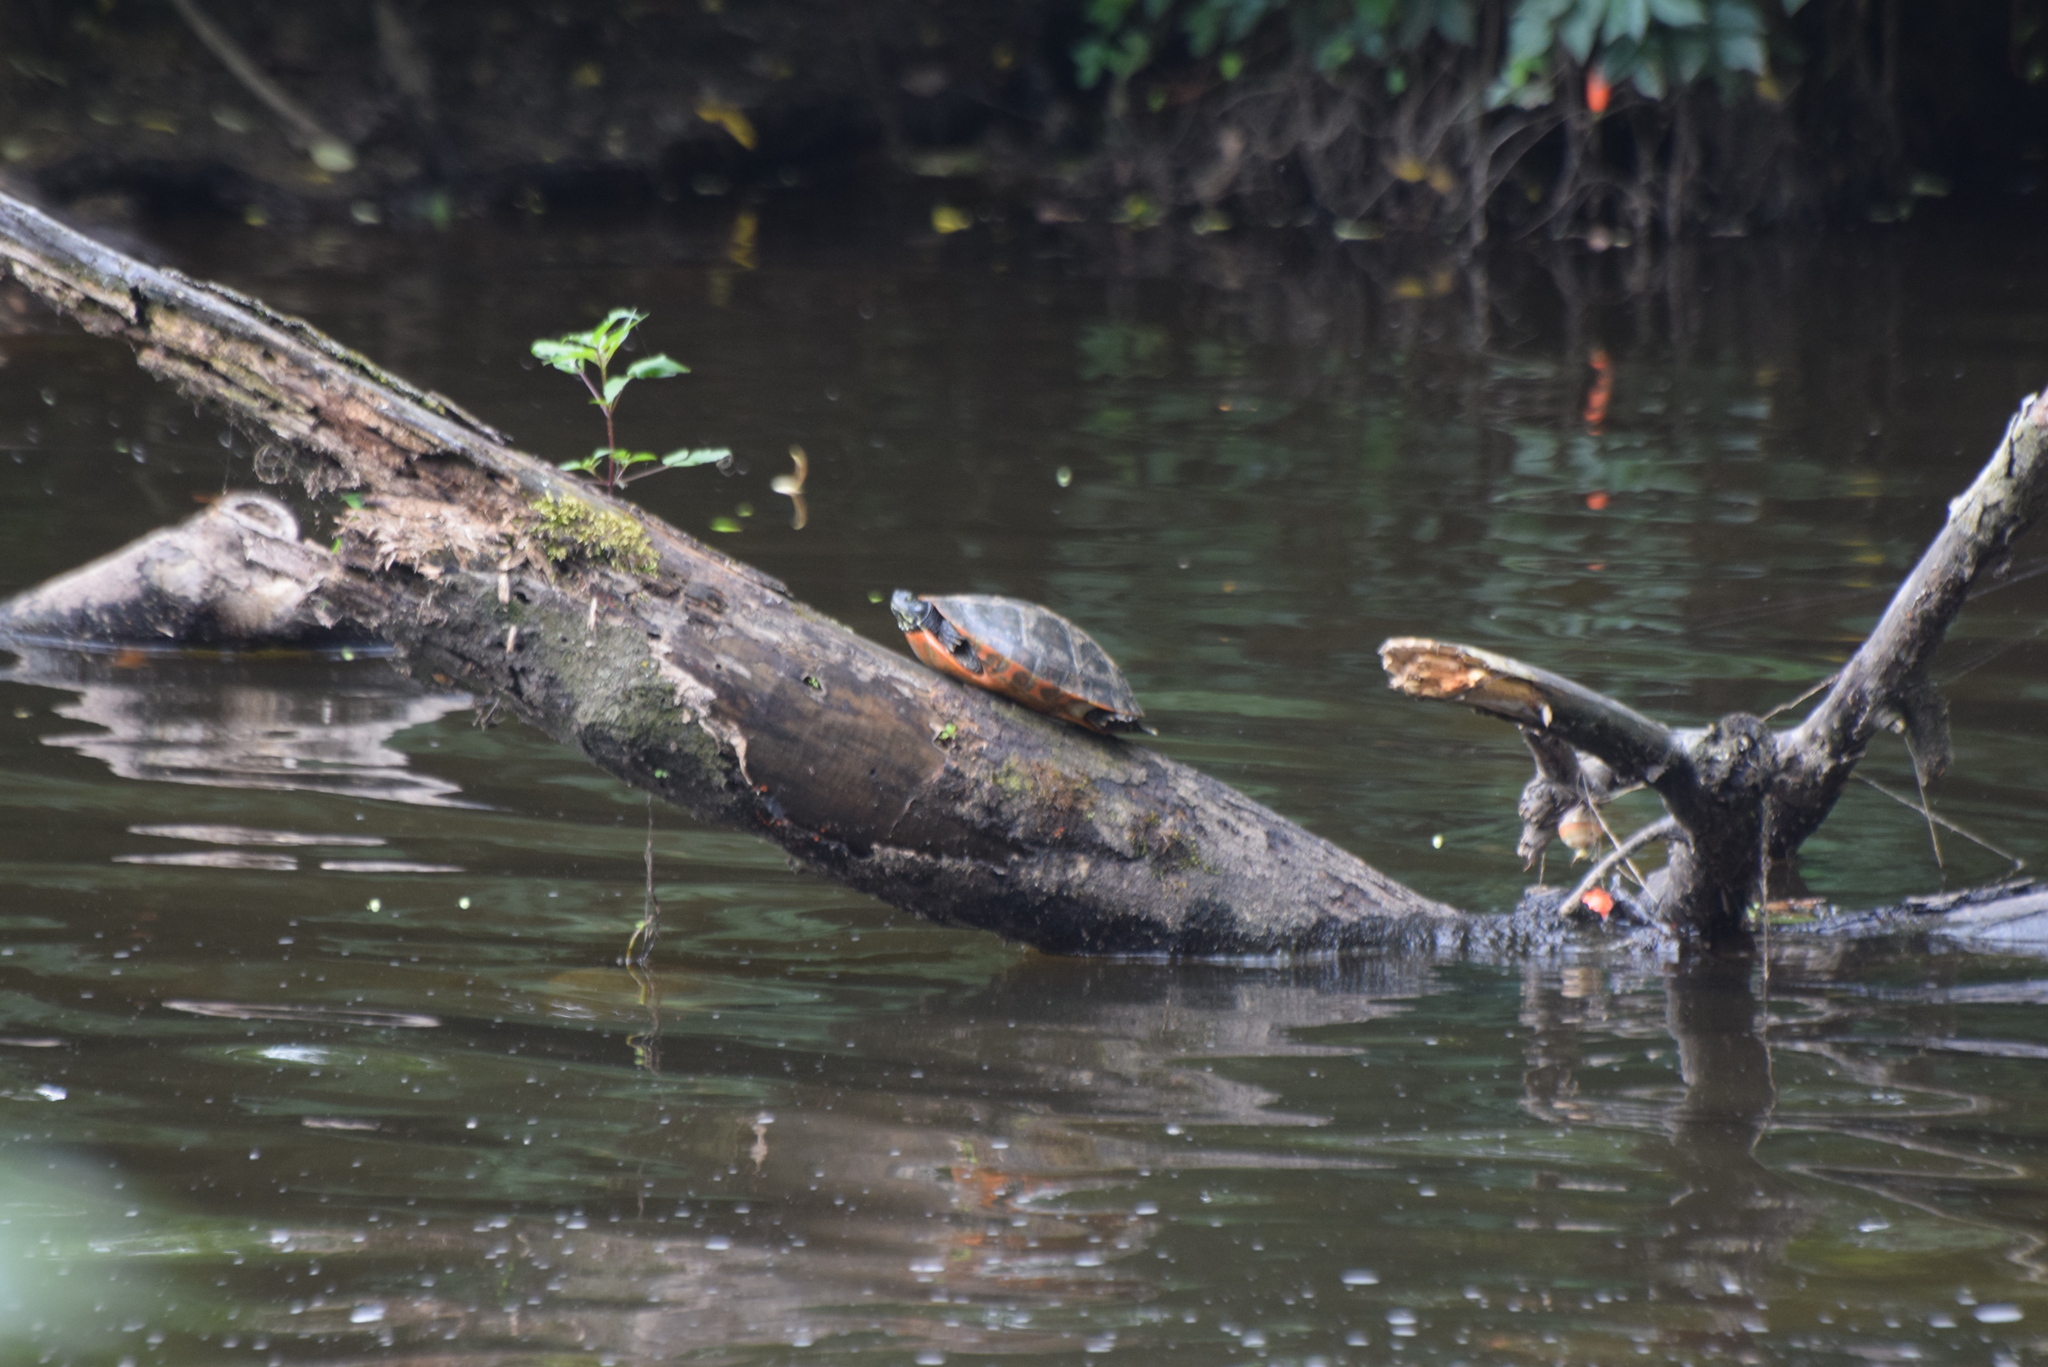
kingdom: Animalia
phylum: Chordata
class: Testudines
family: Emydidae
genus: Pseudemys
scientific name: Pseudemys rubriventris
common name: American red-bellied turtle
